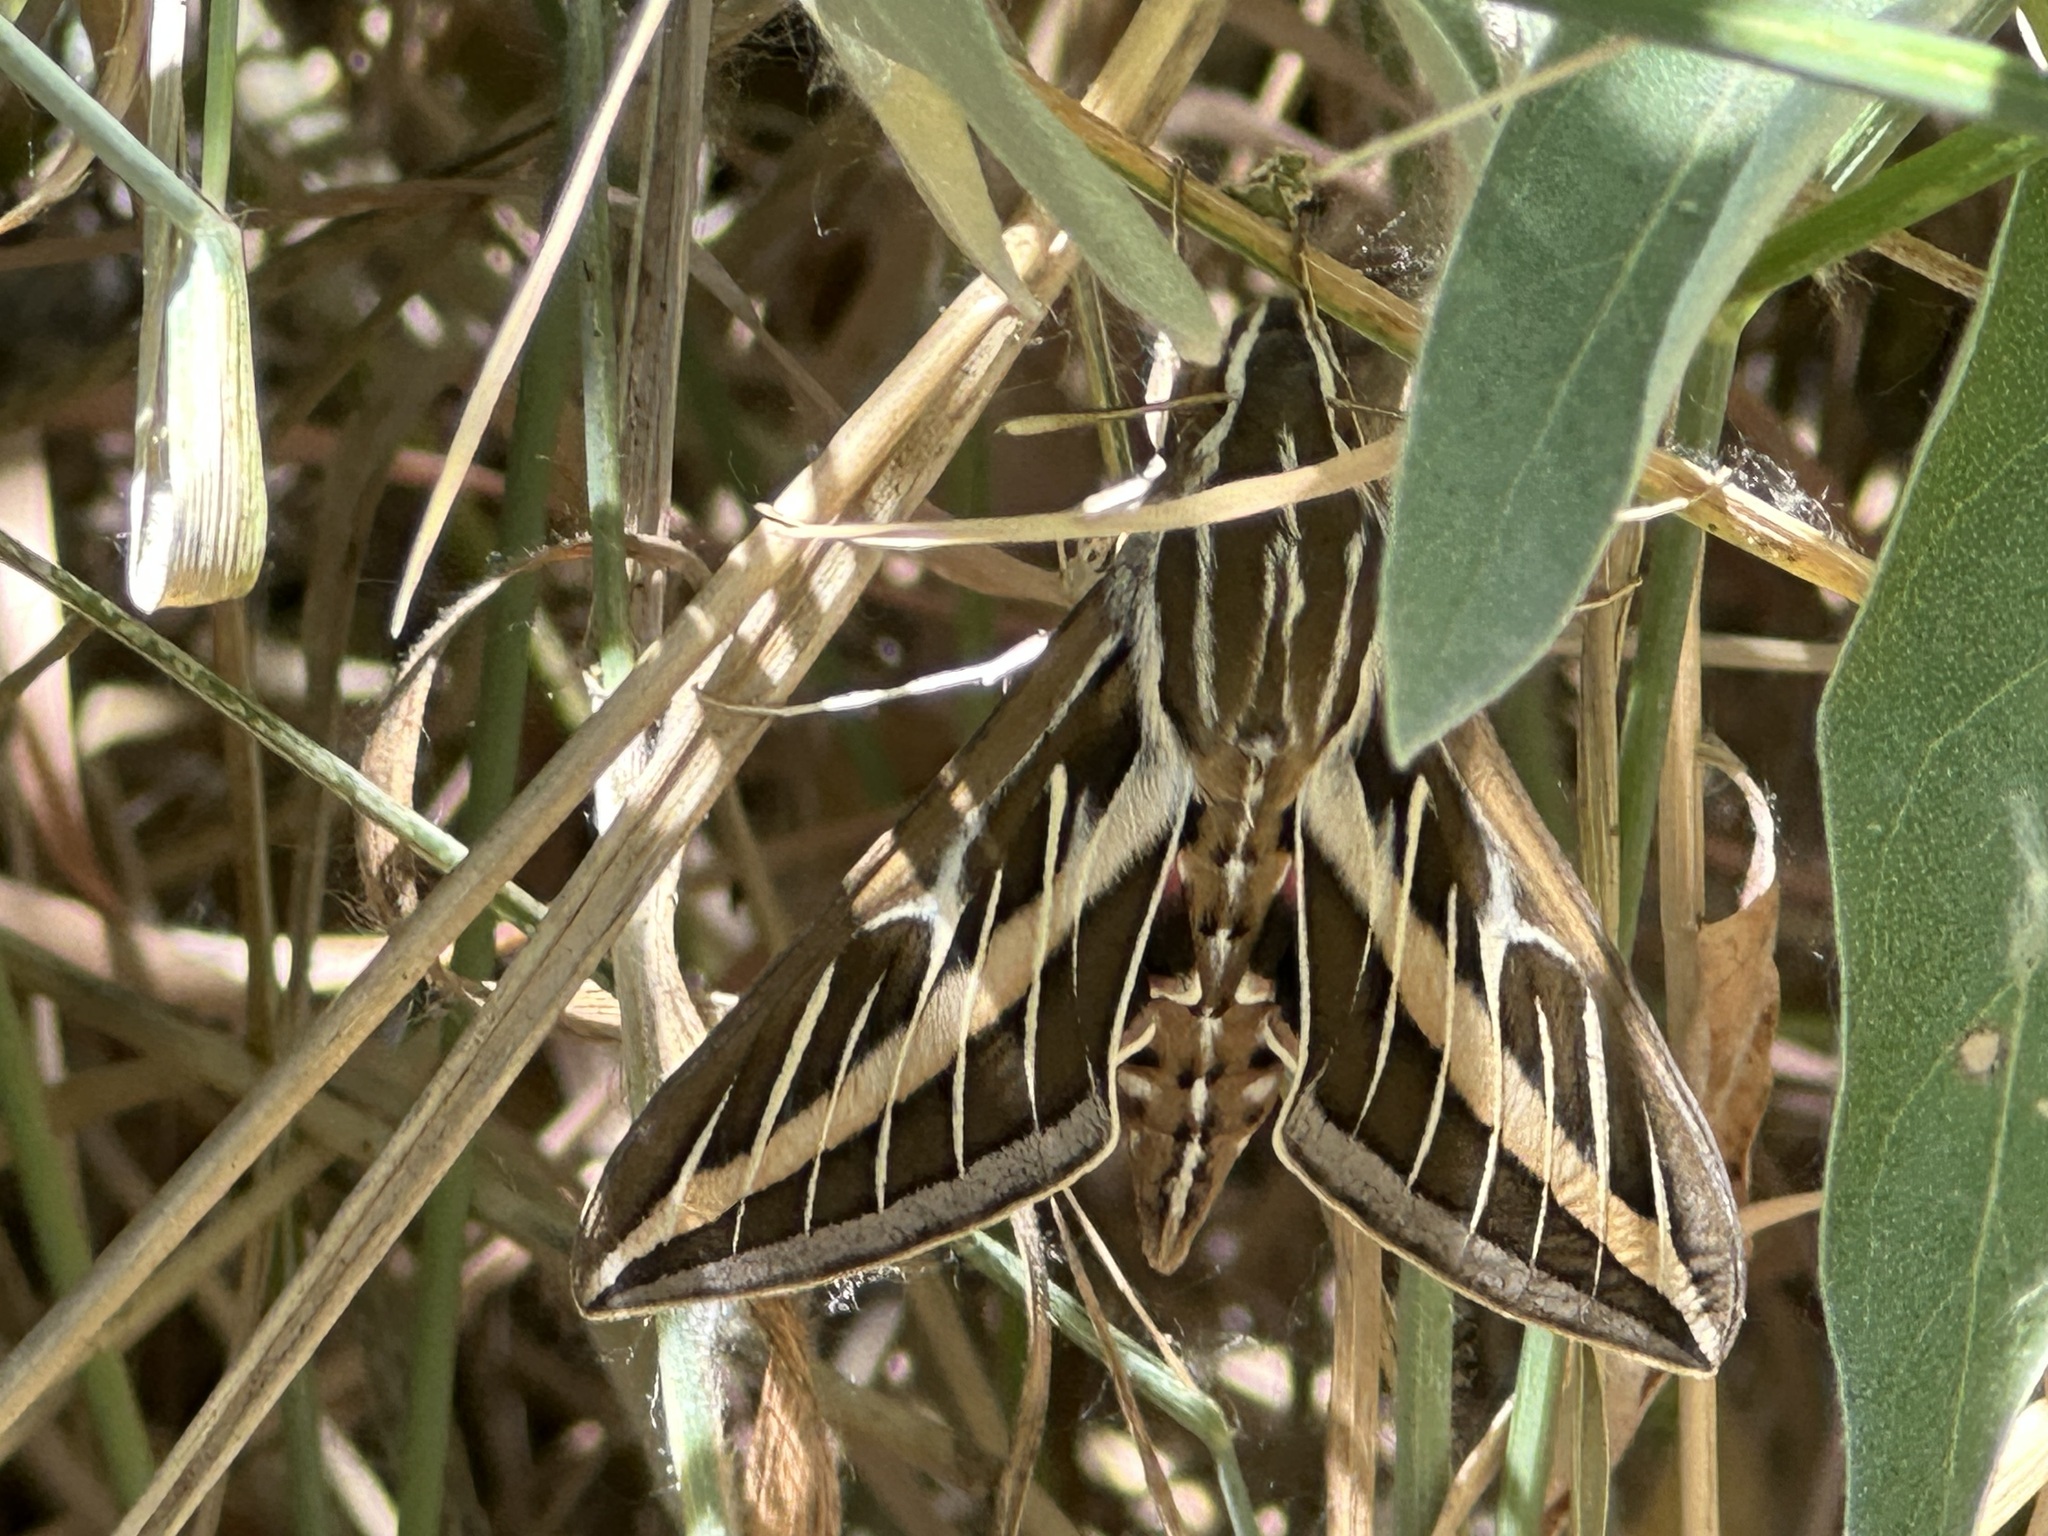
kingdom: Animalia
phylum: Arthropoda
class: Insecta
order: Lepidoptera
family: Sphingidae
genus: Hyles
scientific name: Hyles lineata
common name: White-lined sphinx
